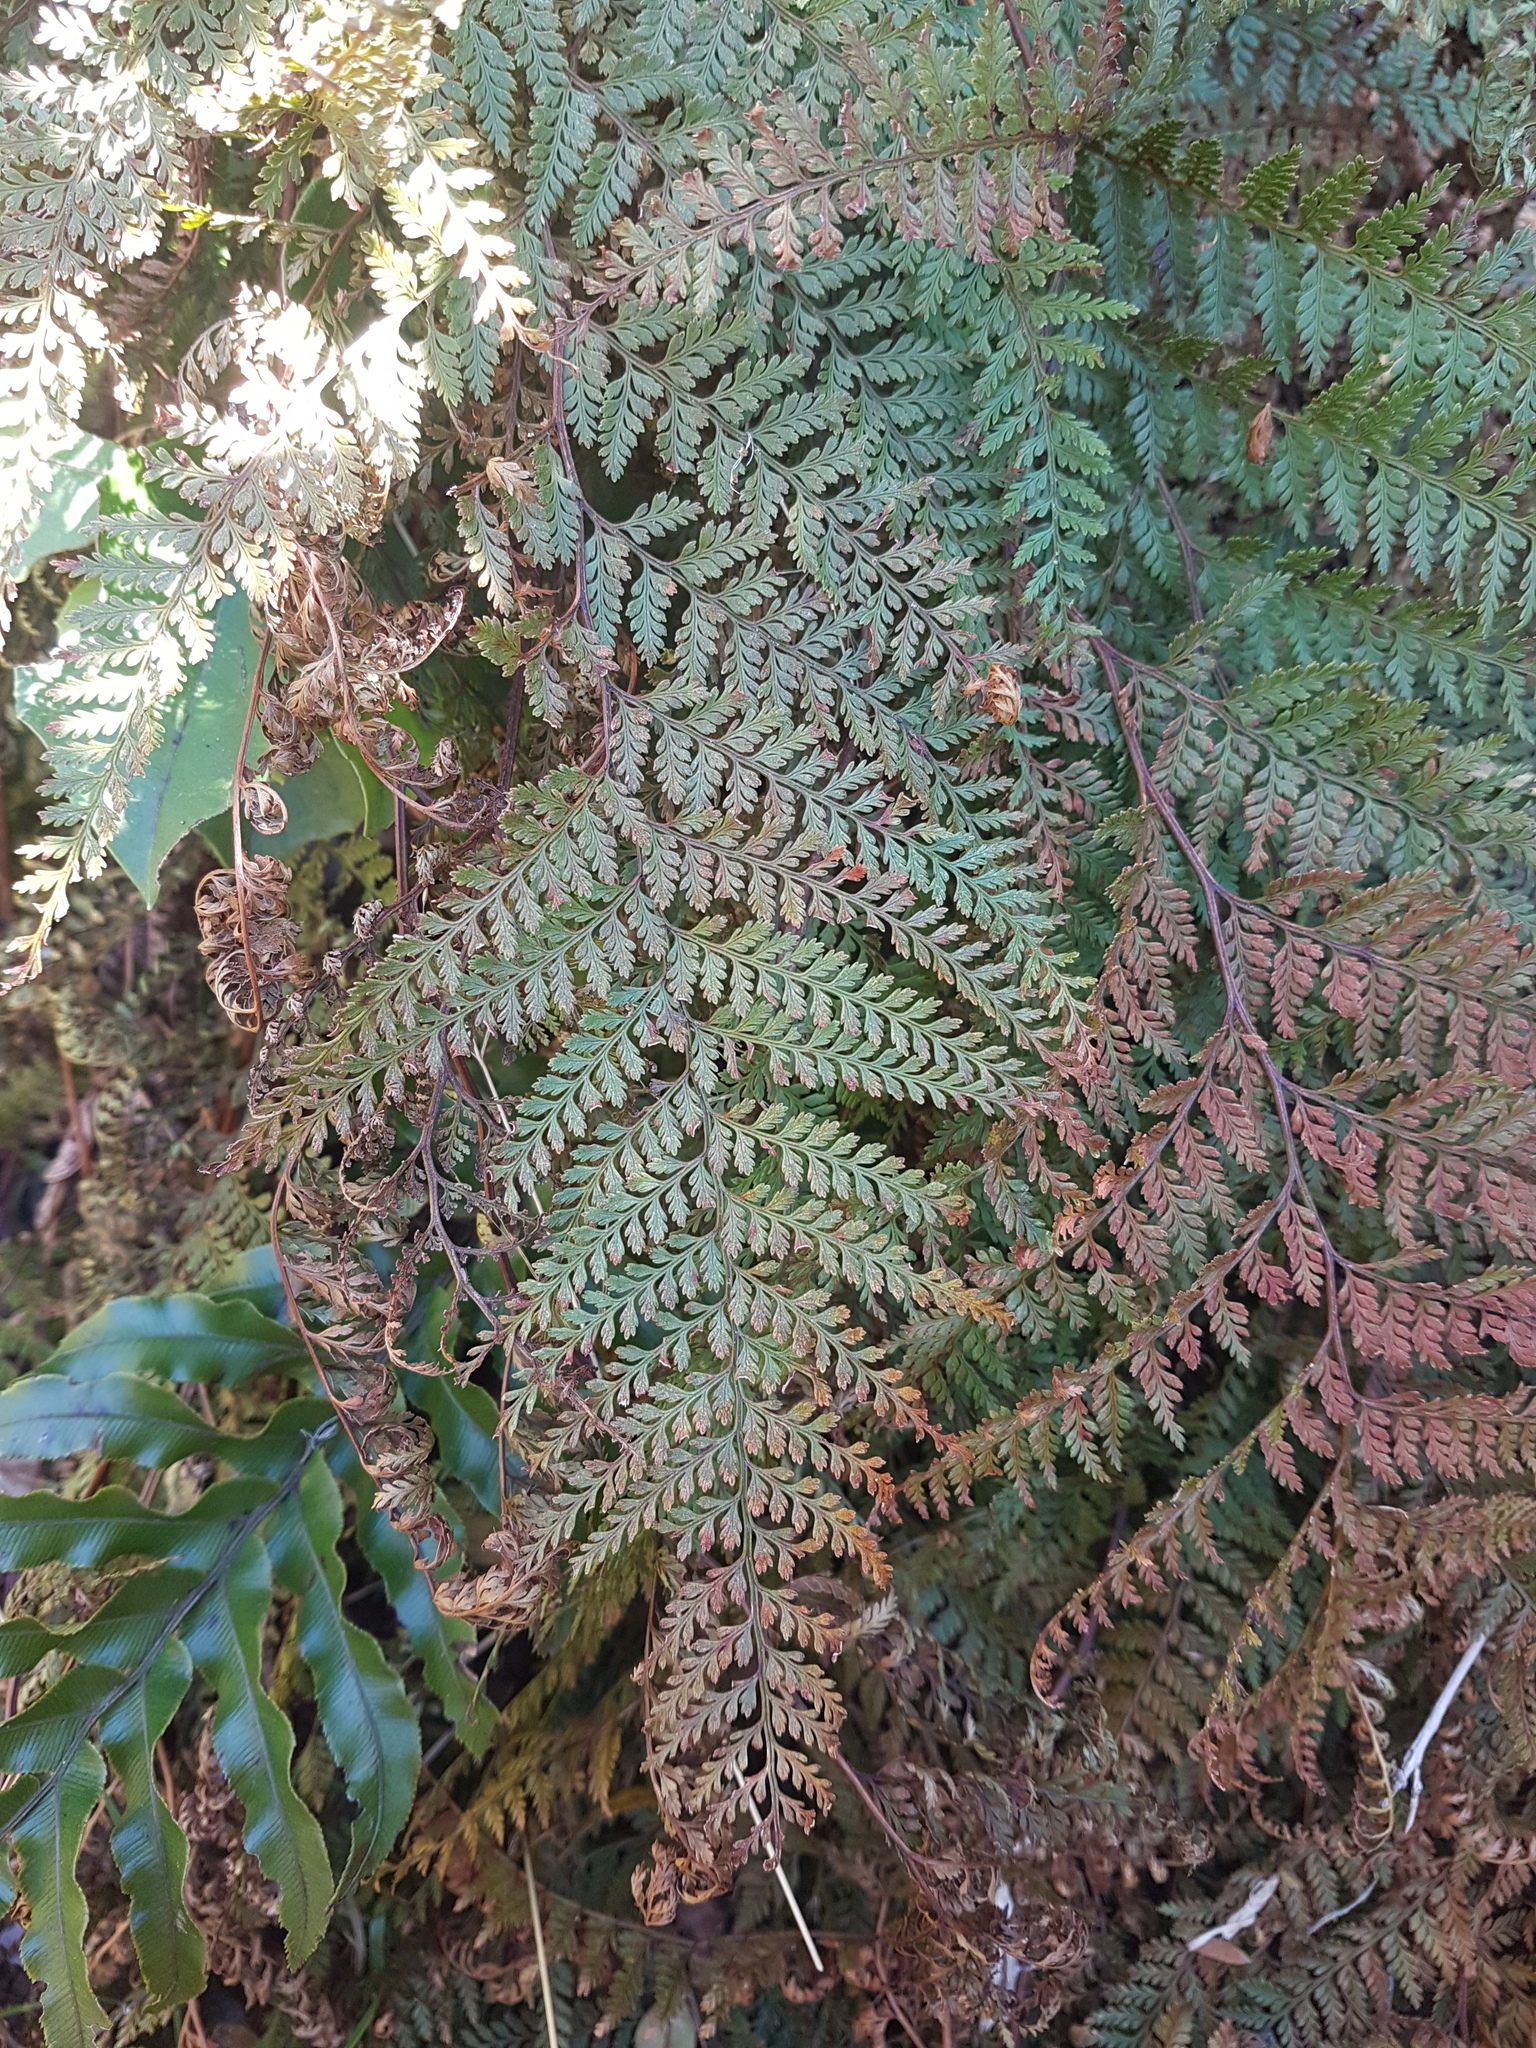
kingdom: Plantae
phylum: Tracheophyta
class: Polypodiopsida
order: Polypodiales
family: Dennstaedtiaceae
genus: Paesia
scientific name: Paesia scaberula
